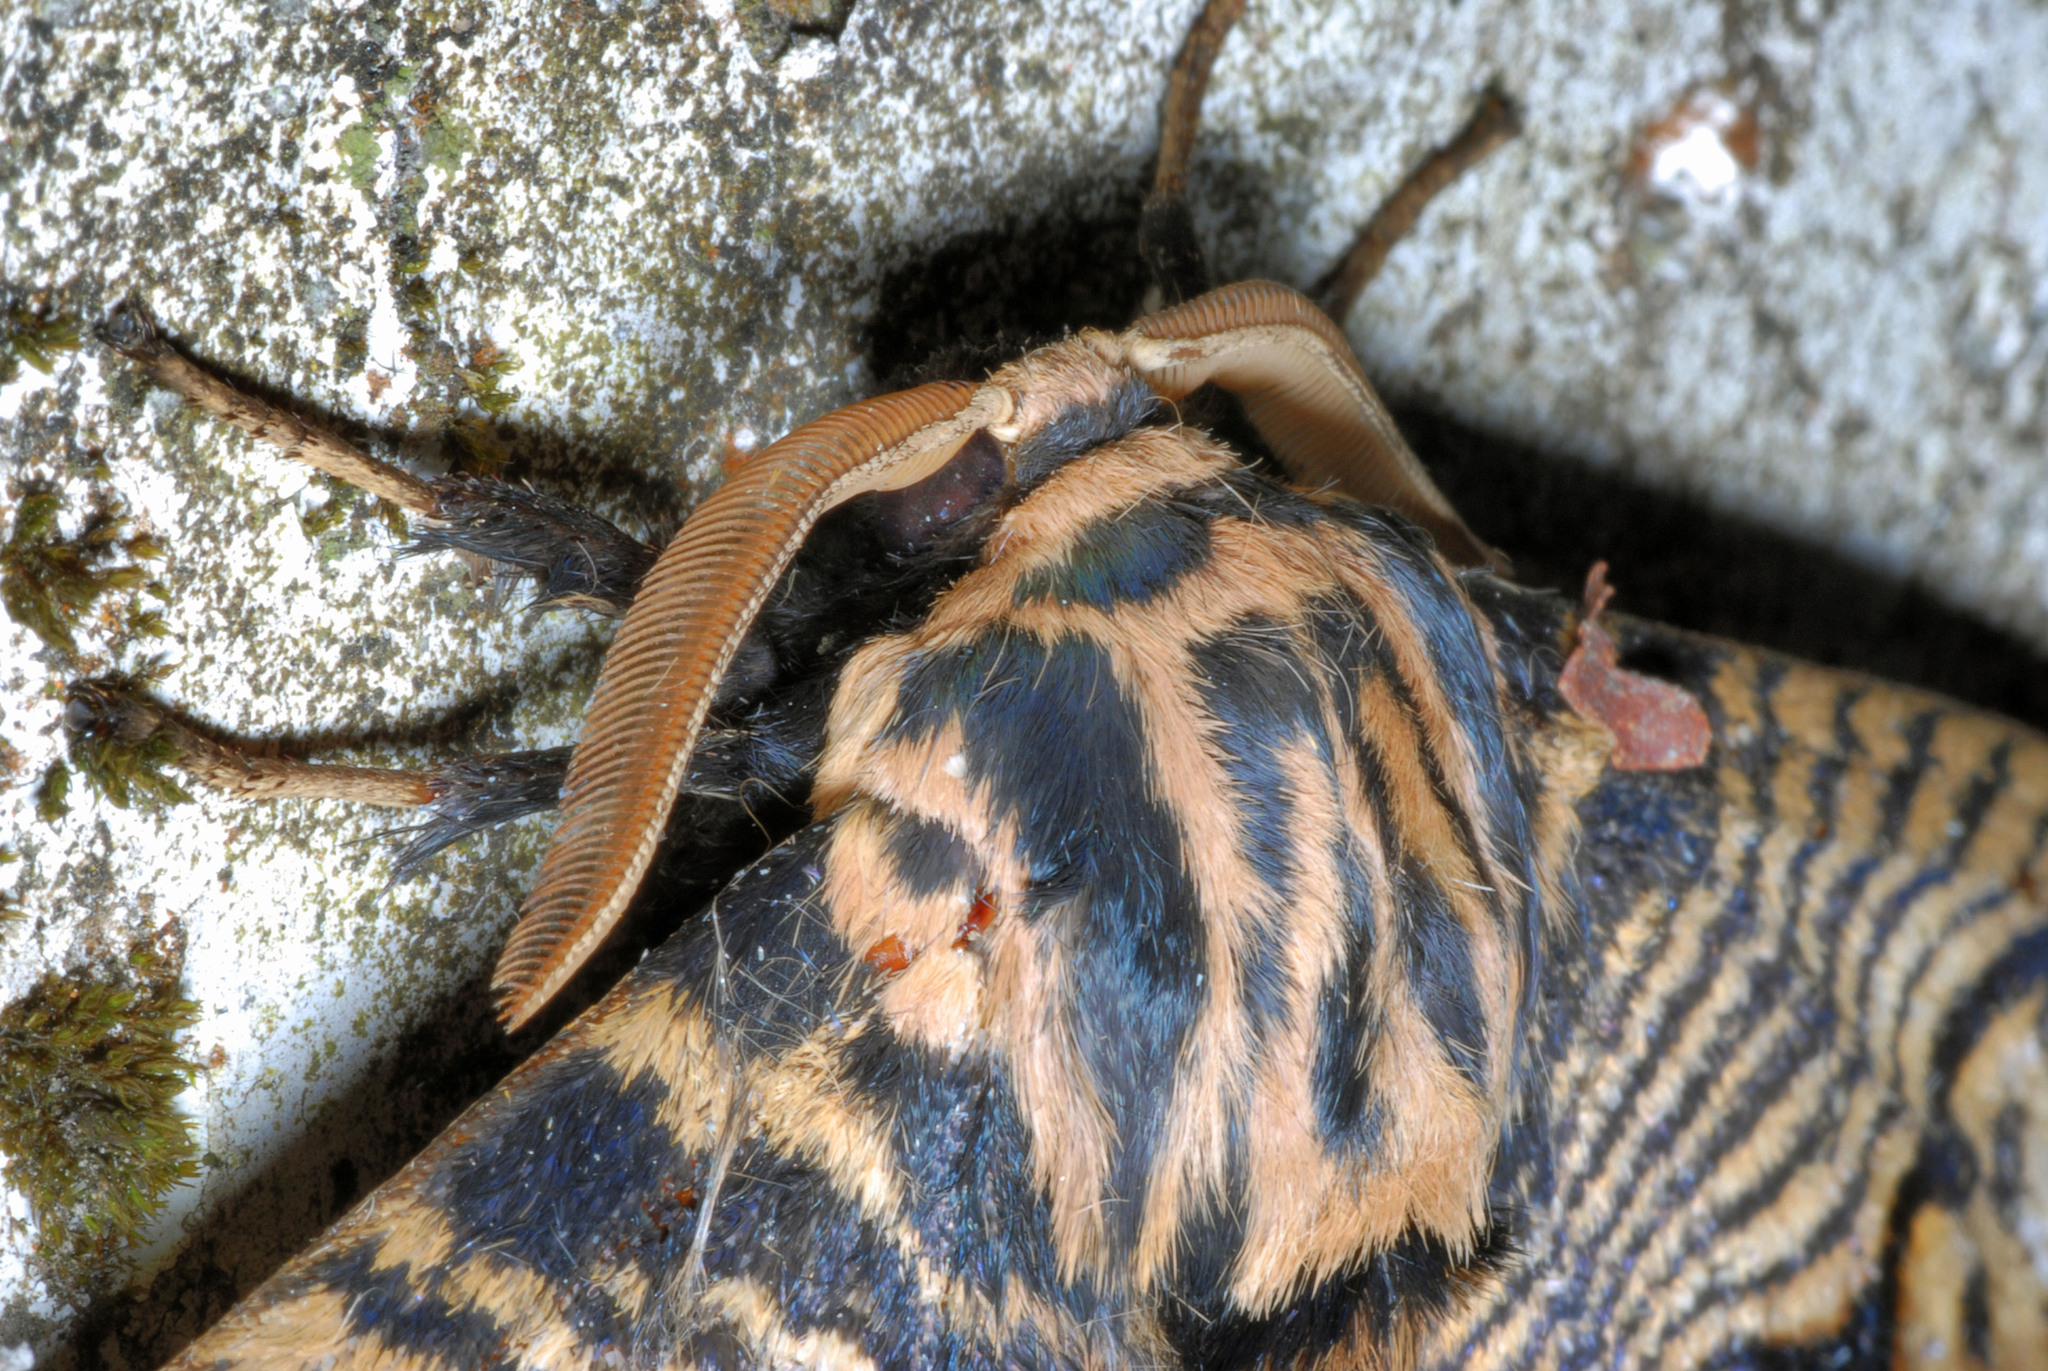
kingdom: Animalia
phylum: Arthropoda
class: Insecta
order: Lepidoptera
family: Brahmaeidae
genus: Brahmaea
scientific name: Brahmaea wallichii
